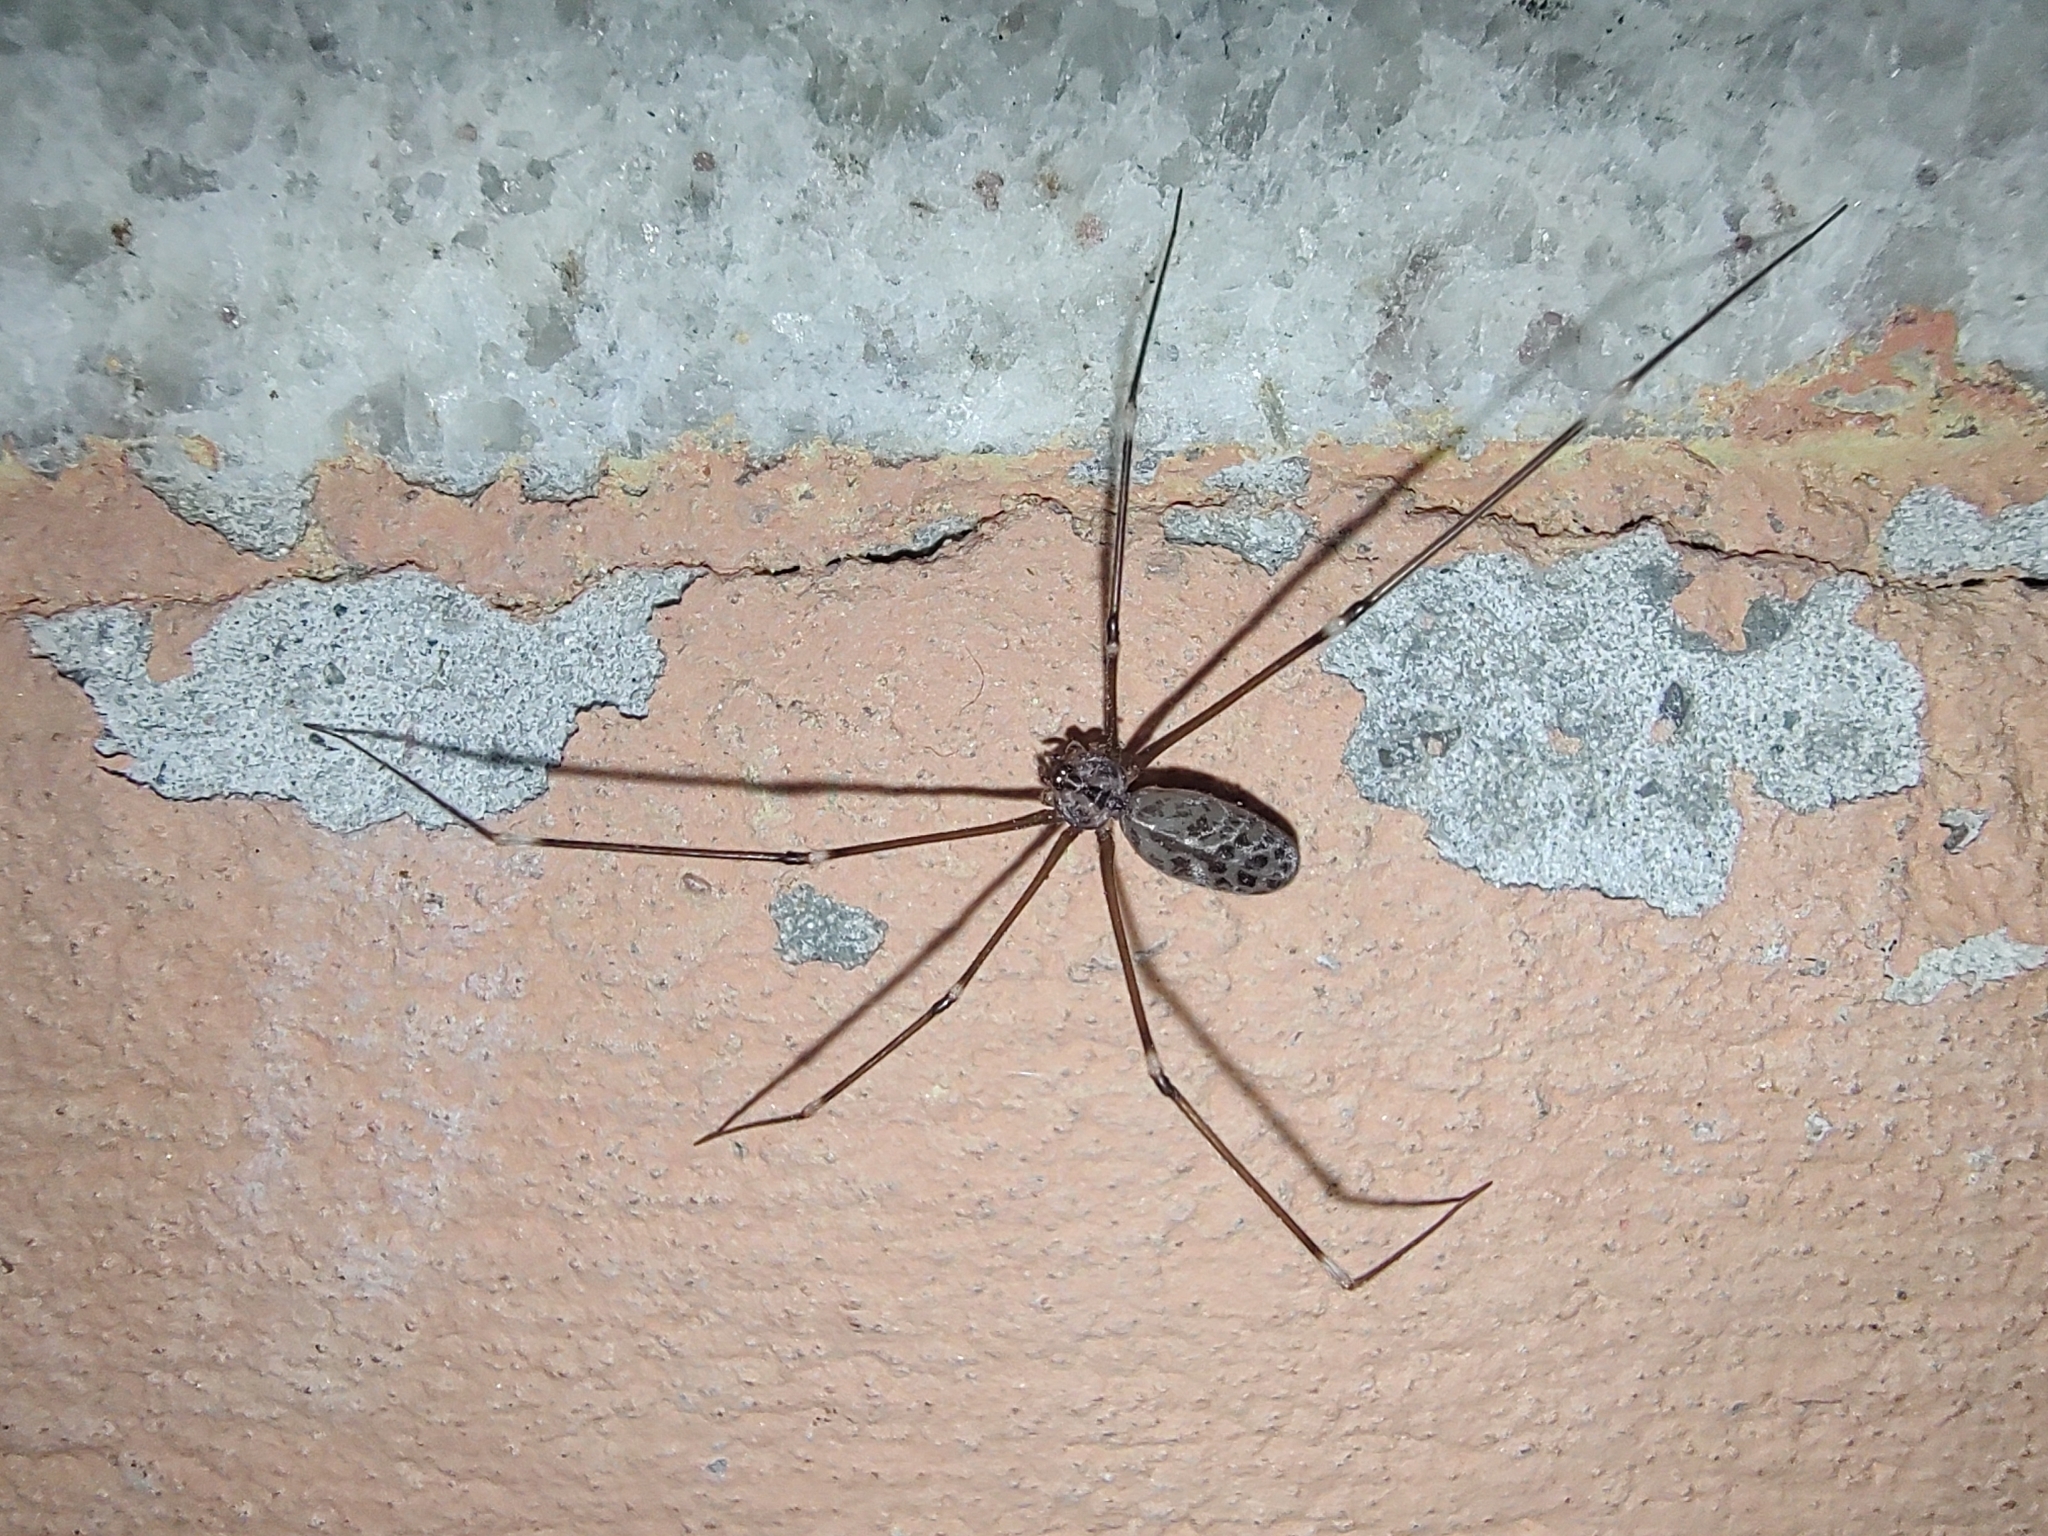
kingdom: Animalia
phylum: Arthropoda
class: Arachnida
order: Araneae
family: Pholcidae
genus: Smeringopus
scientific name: Smeringopus pallidus
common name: Cellar spider
